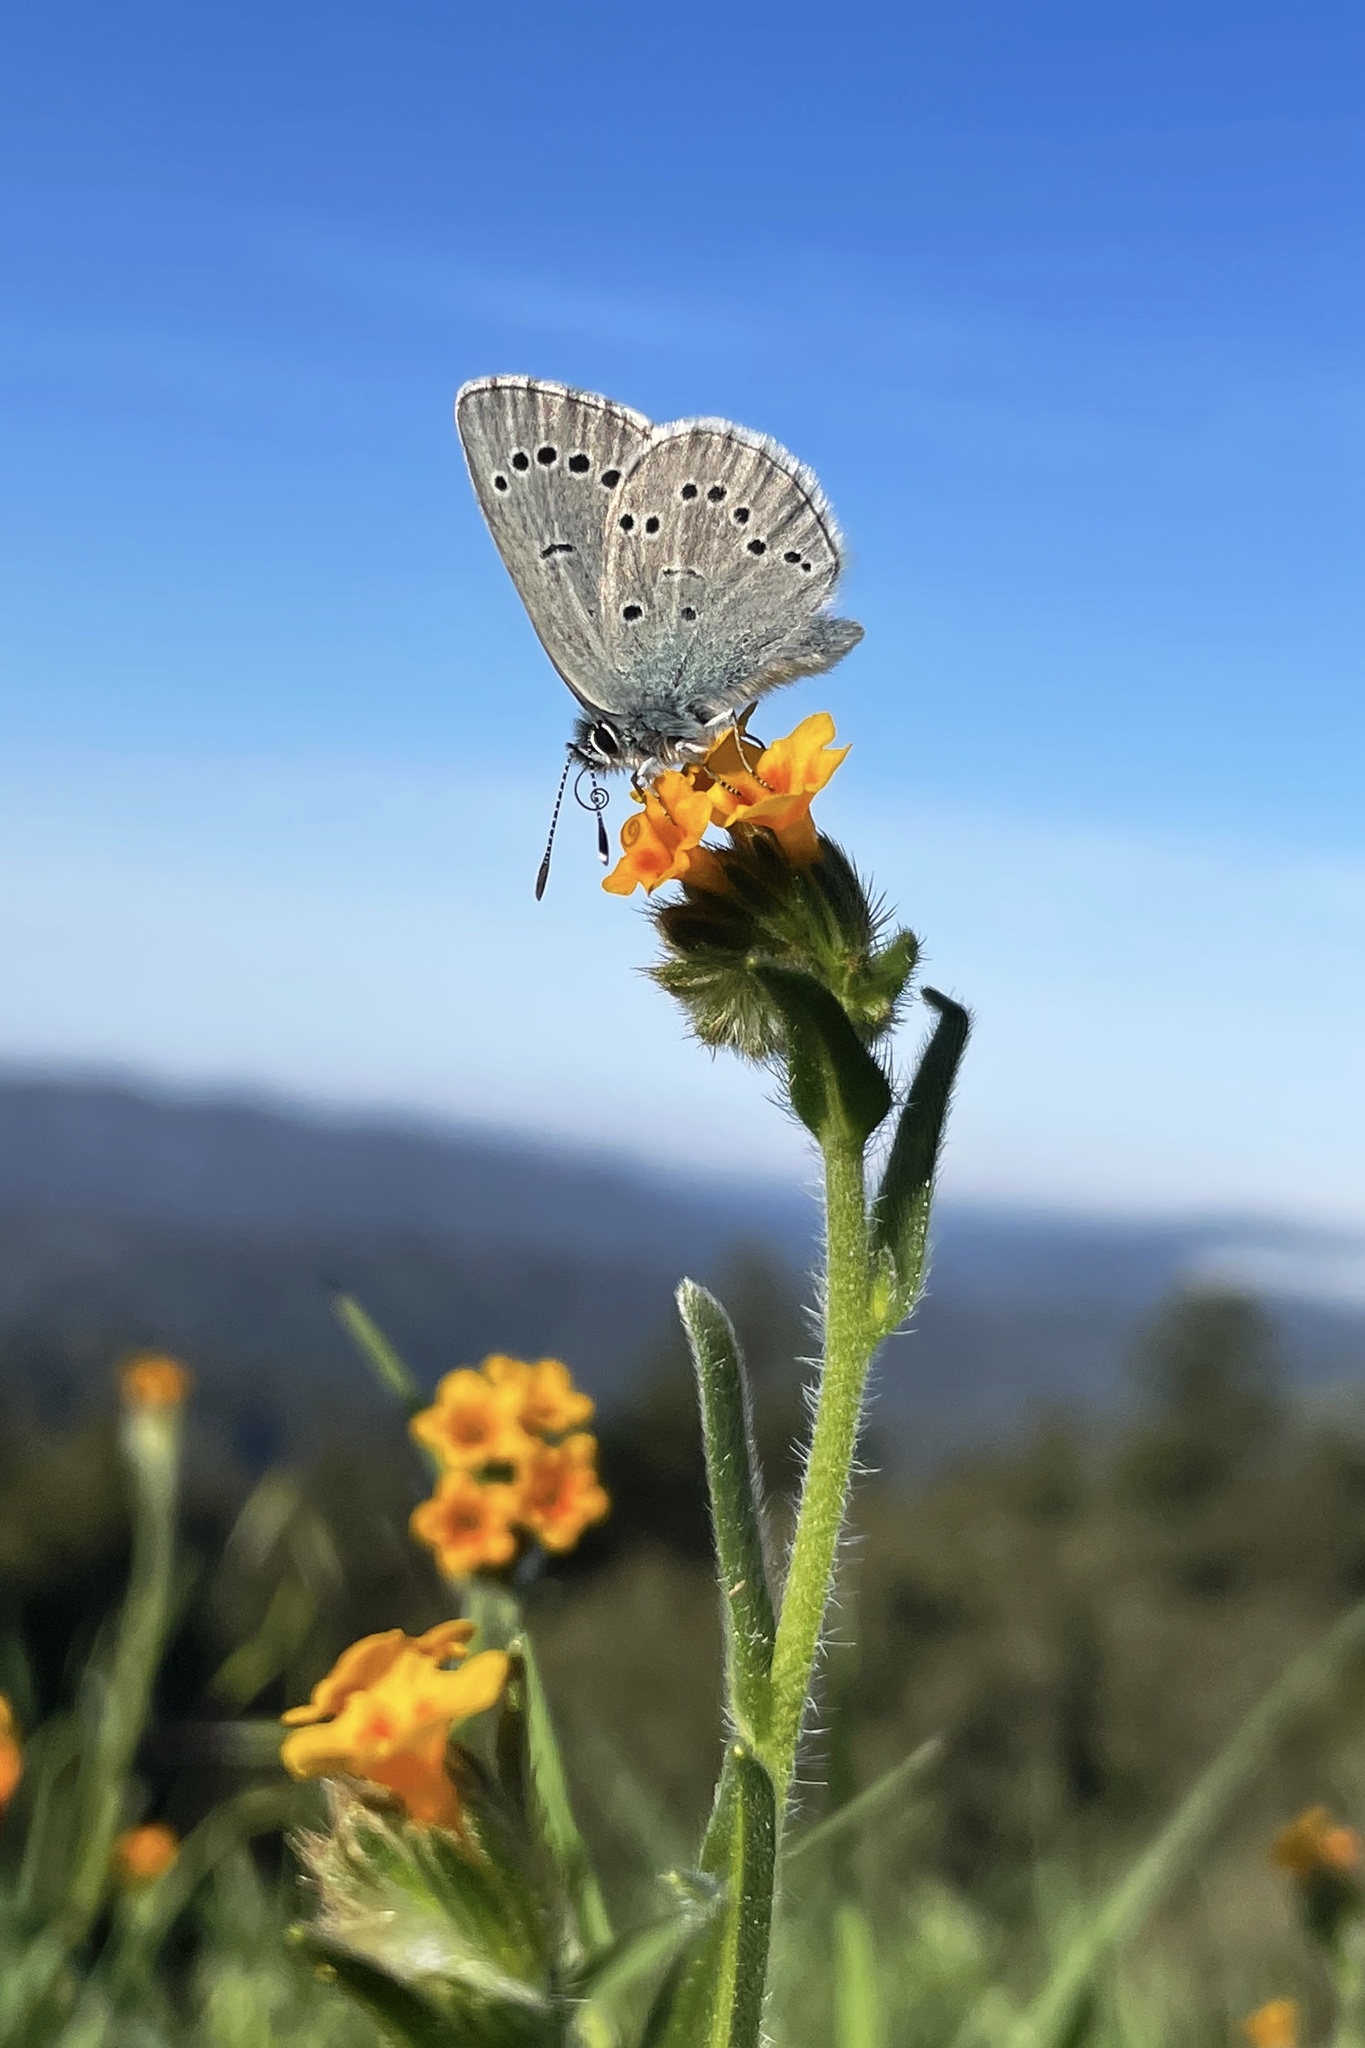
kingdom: Animalia
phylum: Arthropoda
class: Insecta
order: Lepidoptera
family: Lycaenidae
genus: Glaucopsyche
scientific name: Glaucopsyche lygdamus
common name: Silvery blue
